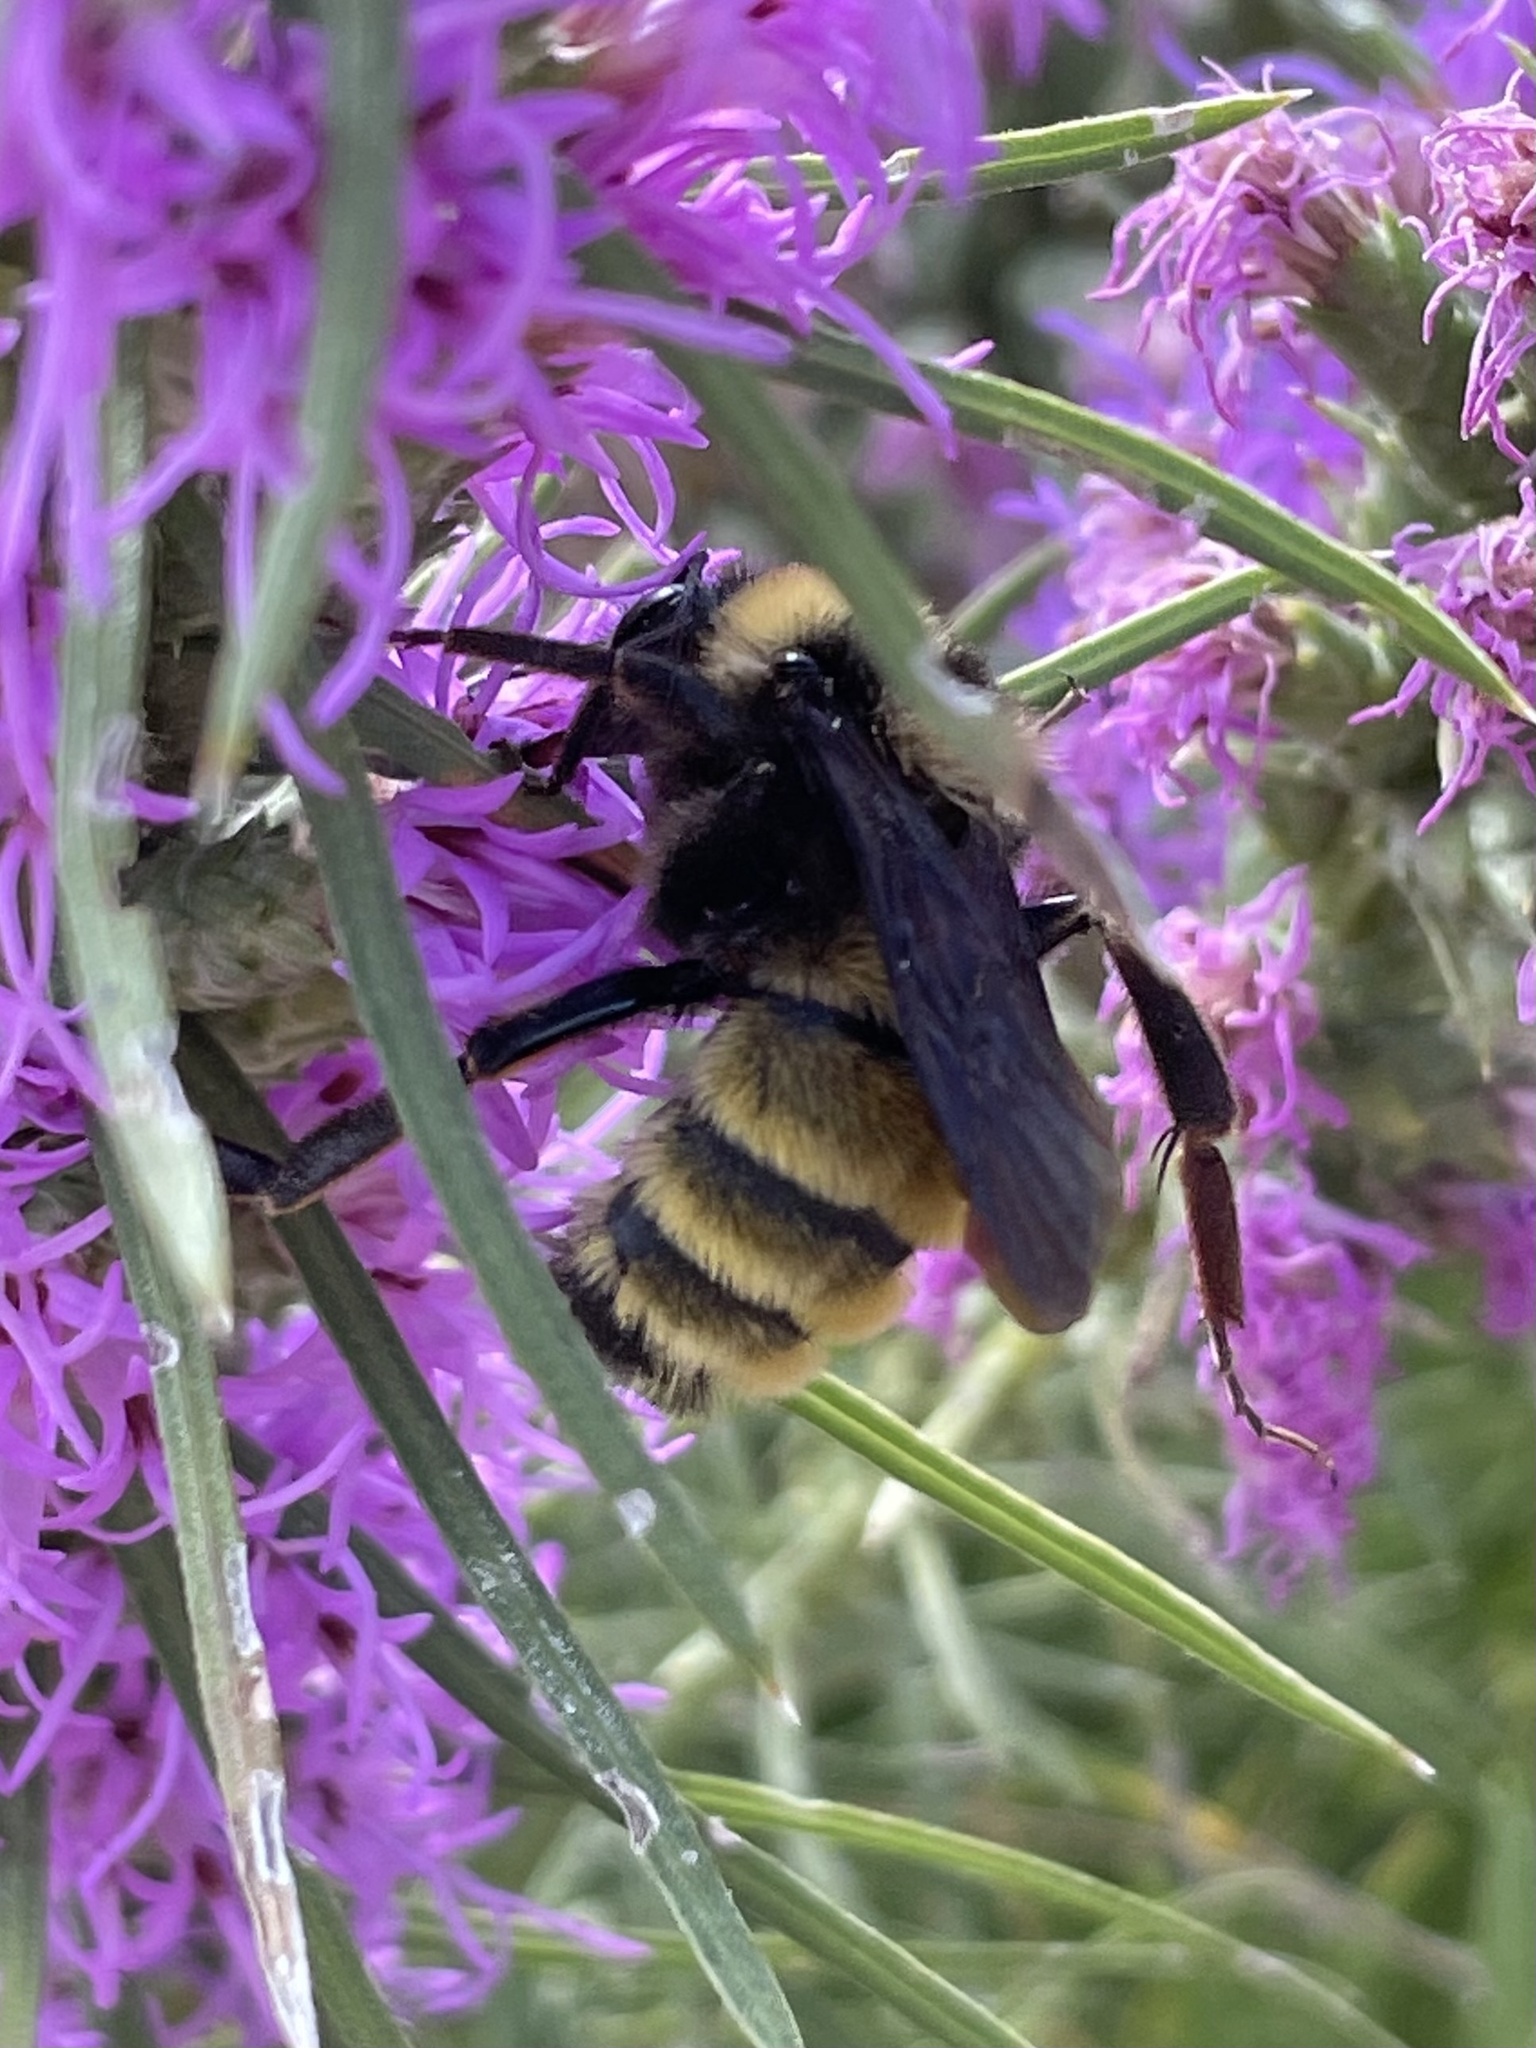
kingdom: Animalia
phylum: Arthropoda
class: Insecta
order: Hymenoptera
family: Apidae
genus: Bombus
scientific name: Bombus pensylvanicus
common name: Bumble bee
